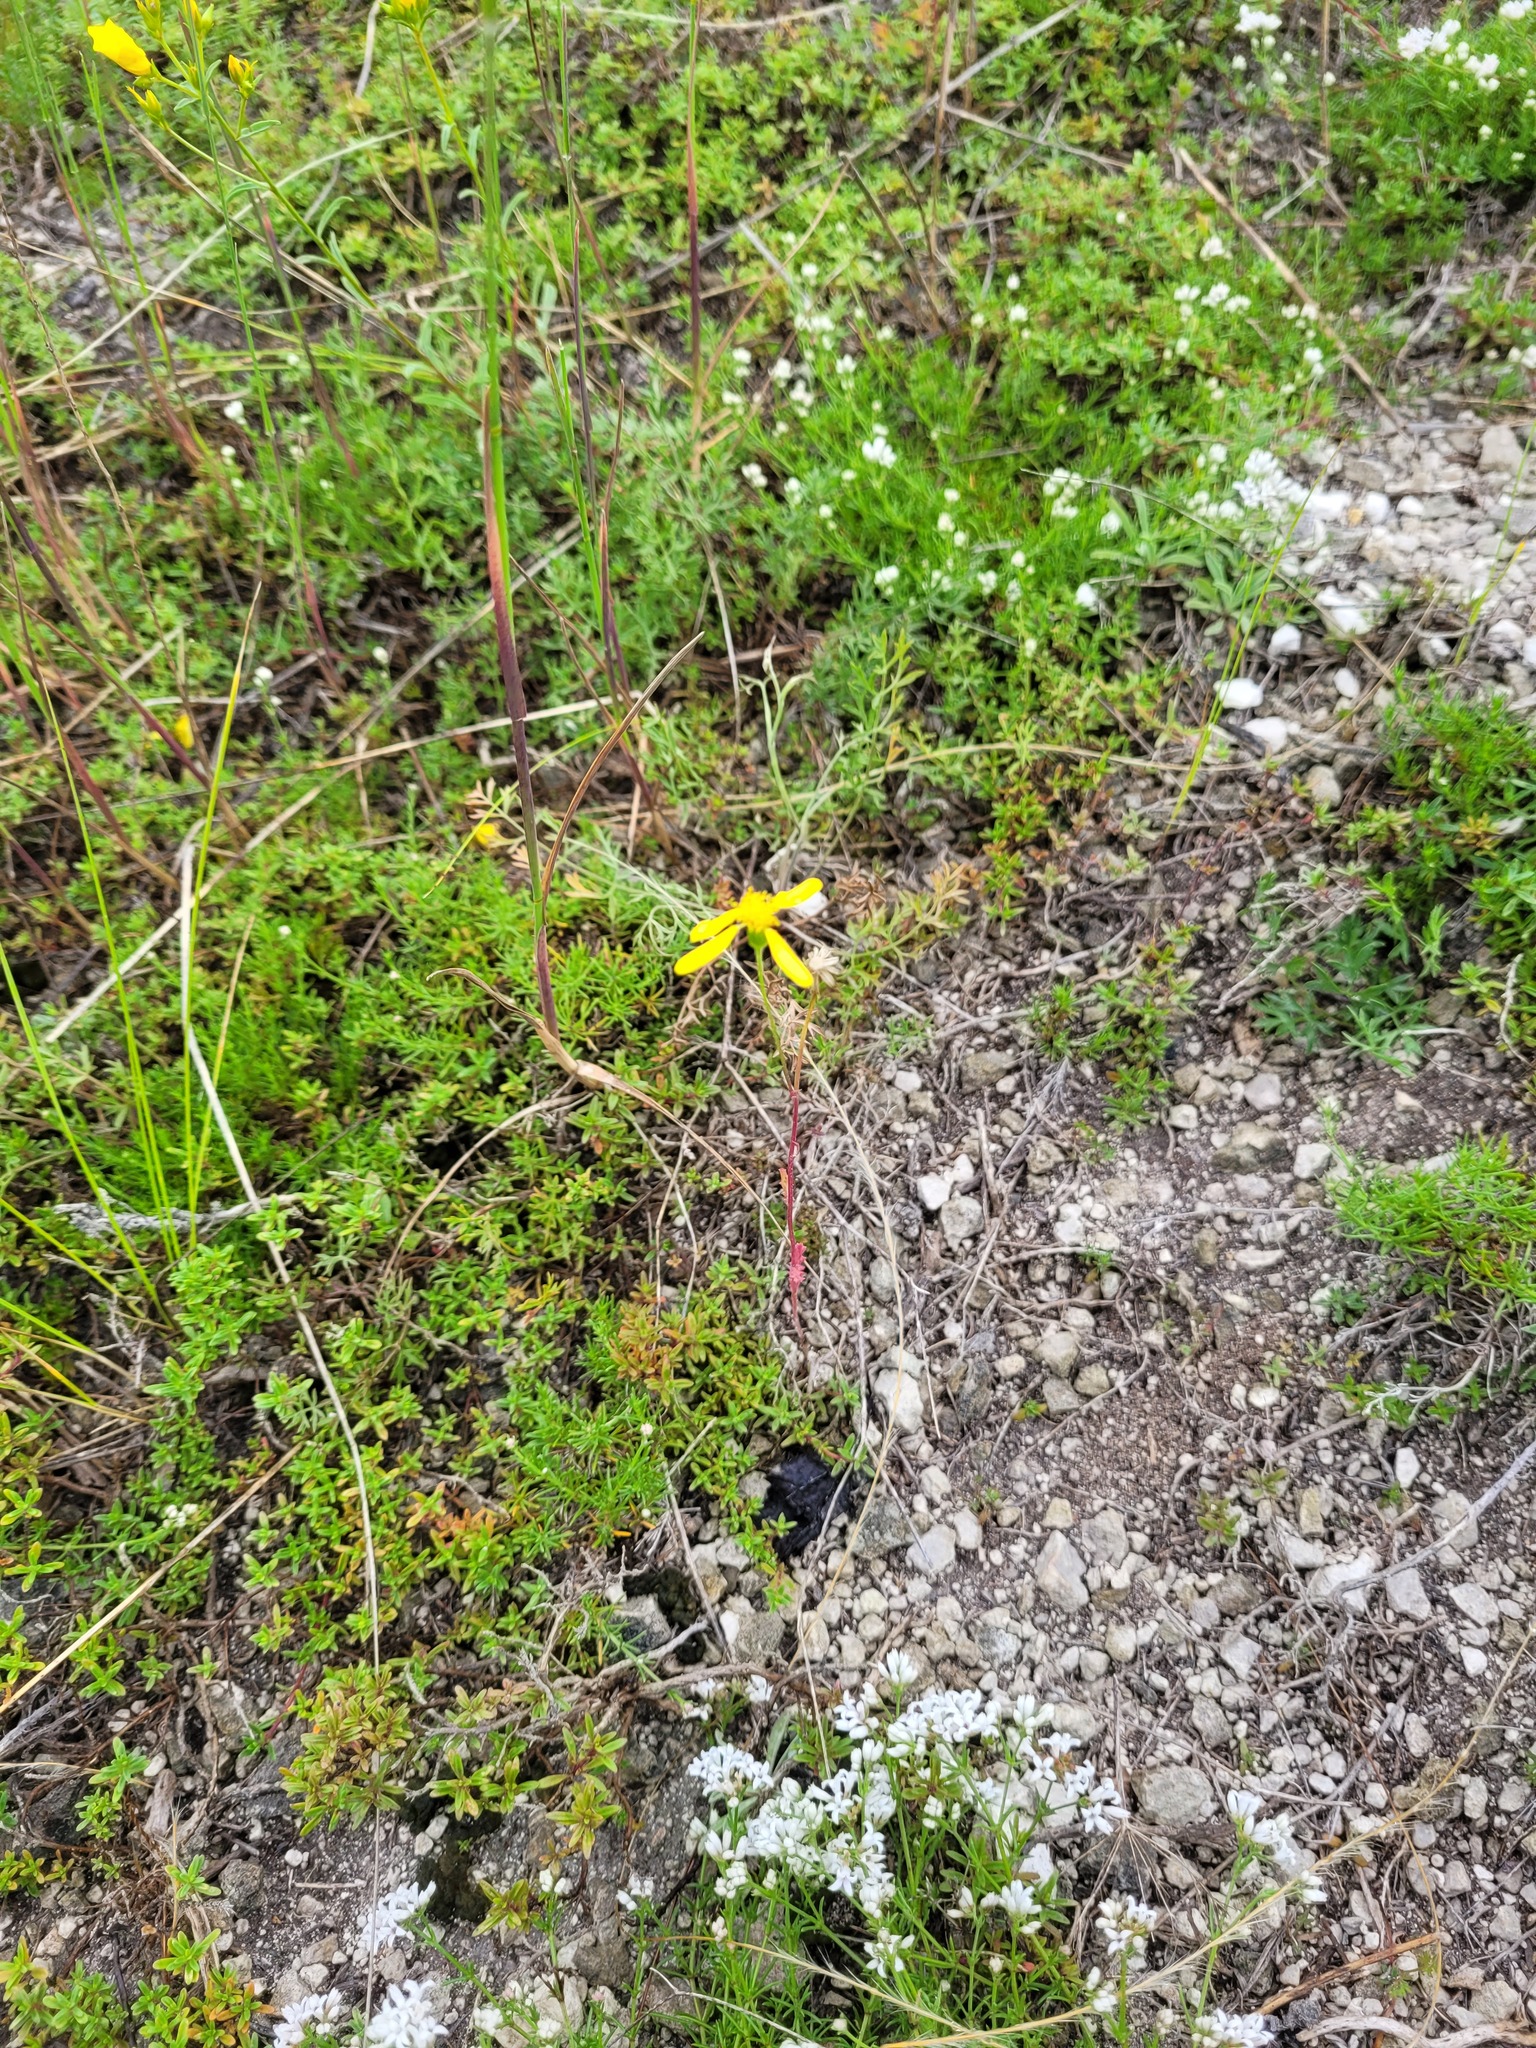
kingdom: Plantae
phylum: Tracheophyta
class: Magnoliopsida
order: Asterales
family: Asteraceae
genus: Senecio
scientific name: Senecio vernalis
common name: Eastern groundsel
